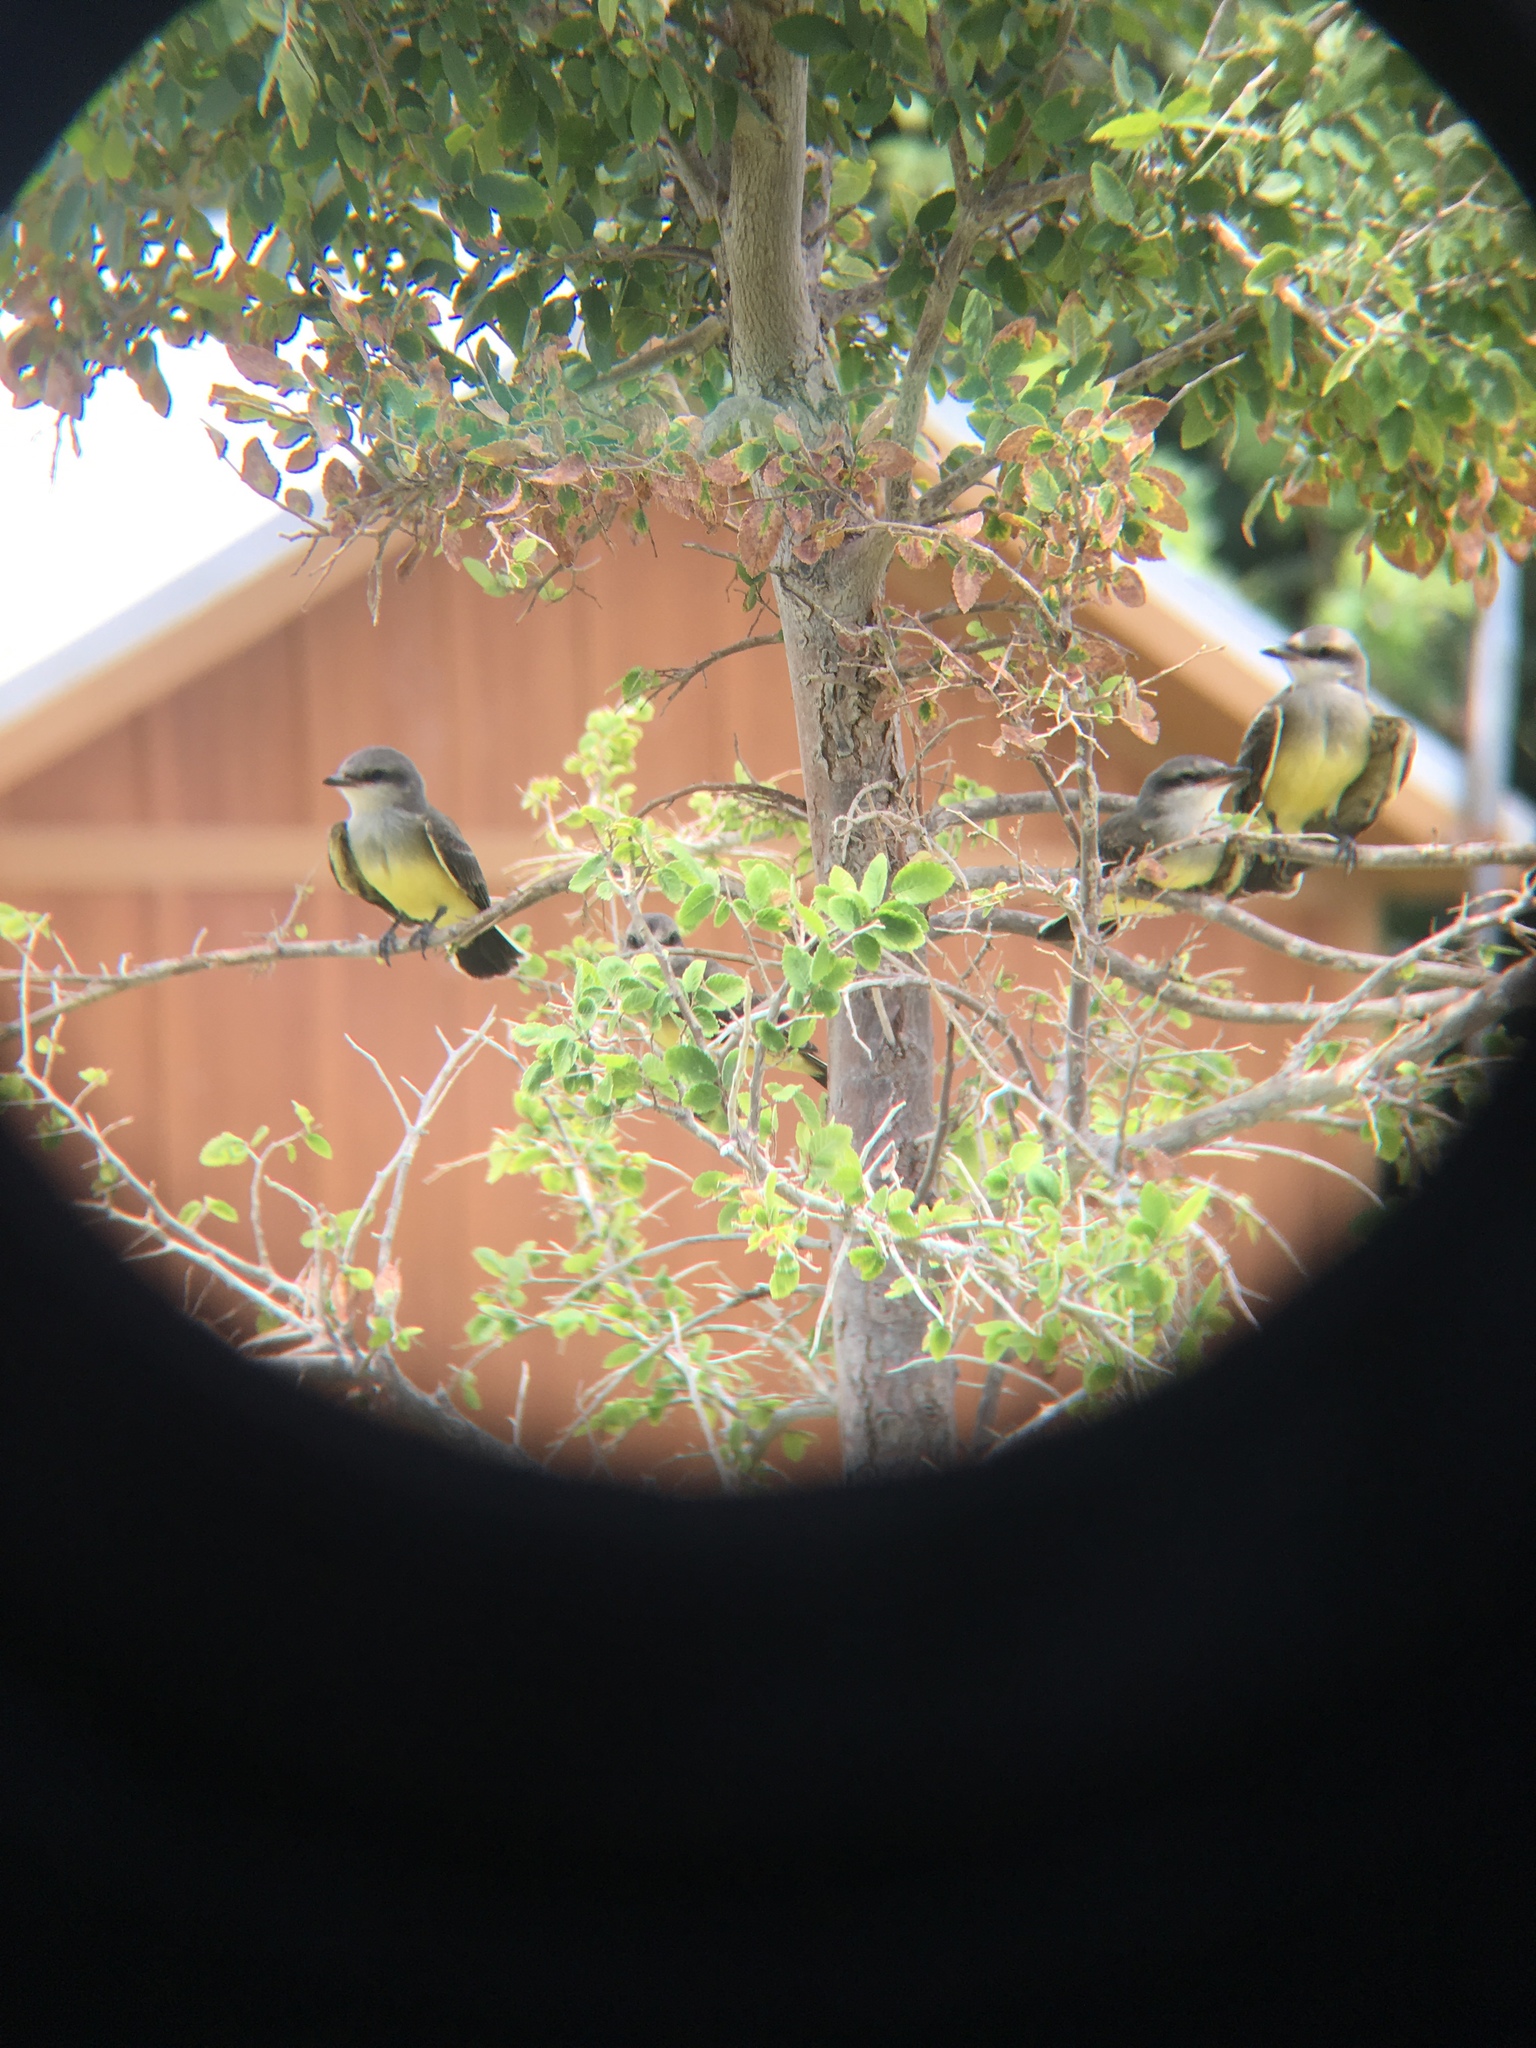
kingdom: Animalia
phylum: Chordata
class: Aves
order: Passeriformes
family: Tyrannidae
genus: Tyrannus
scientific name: Tyrannus verticalis
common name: Western kingbird
